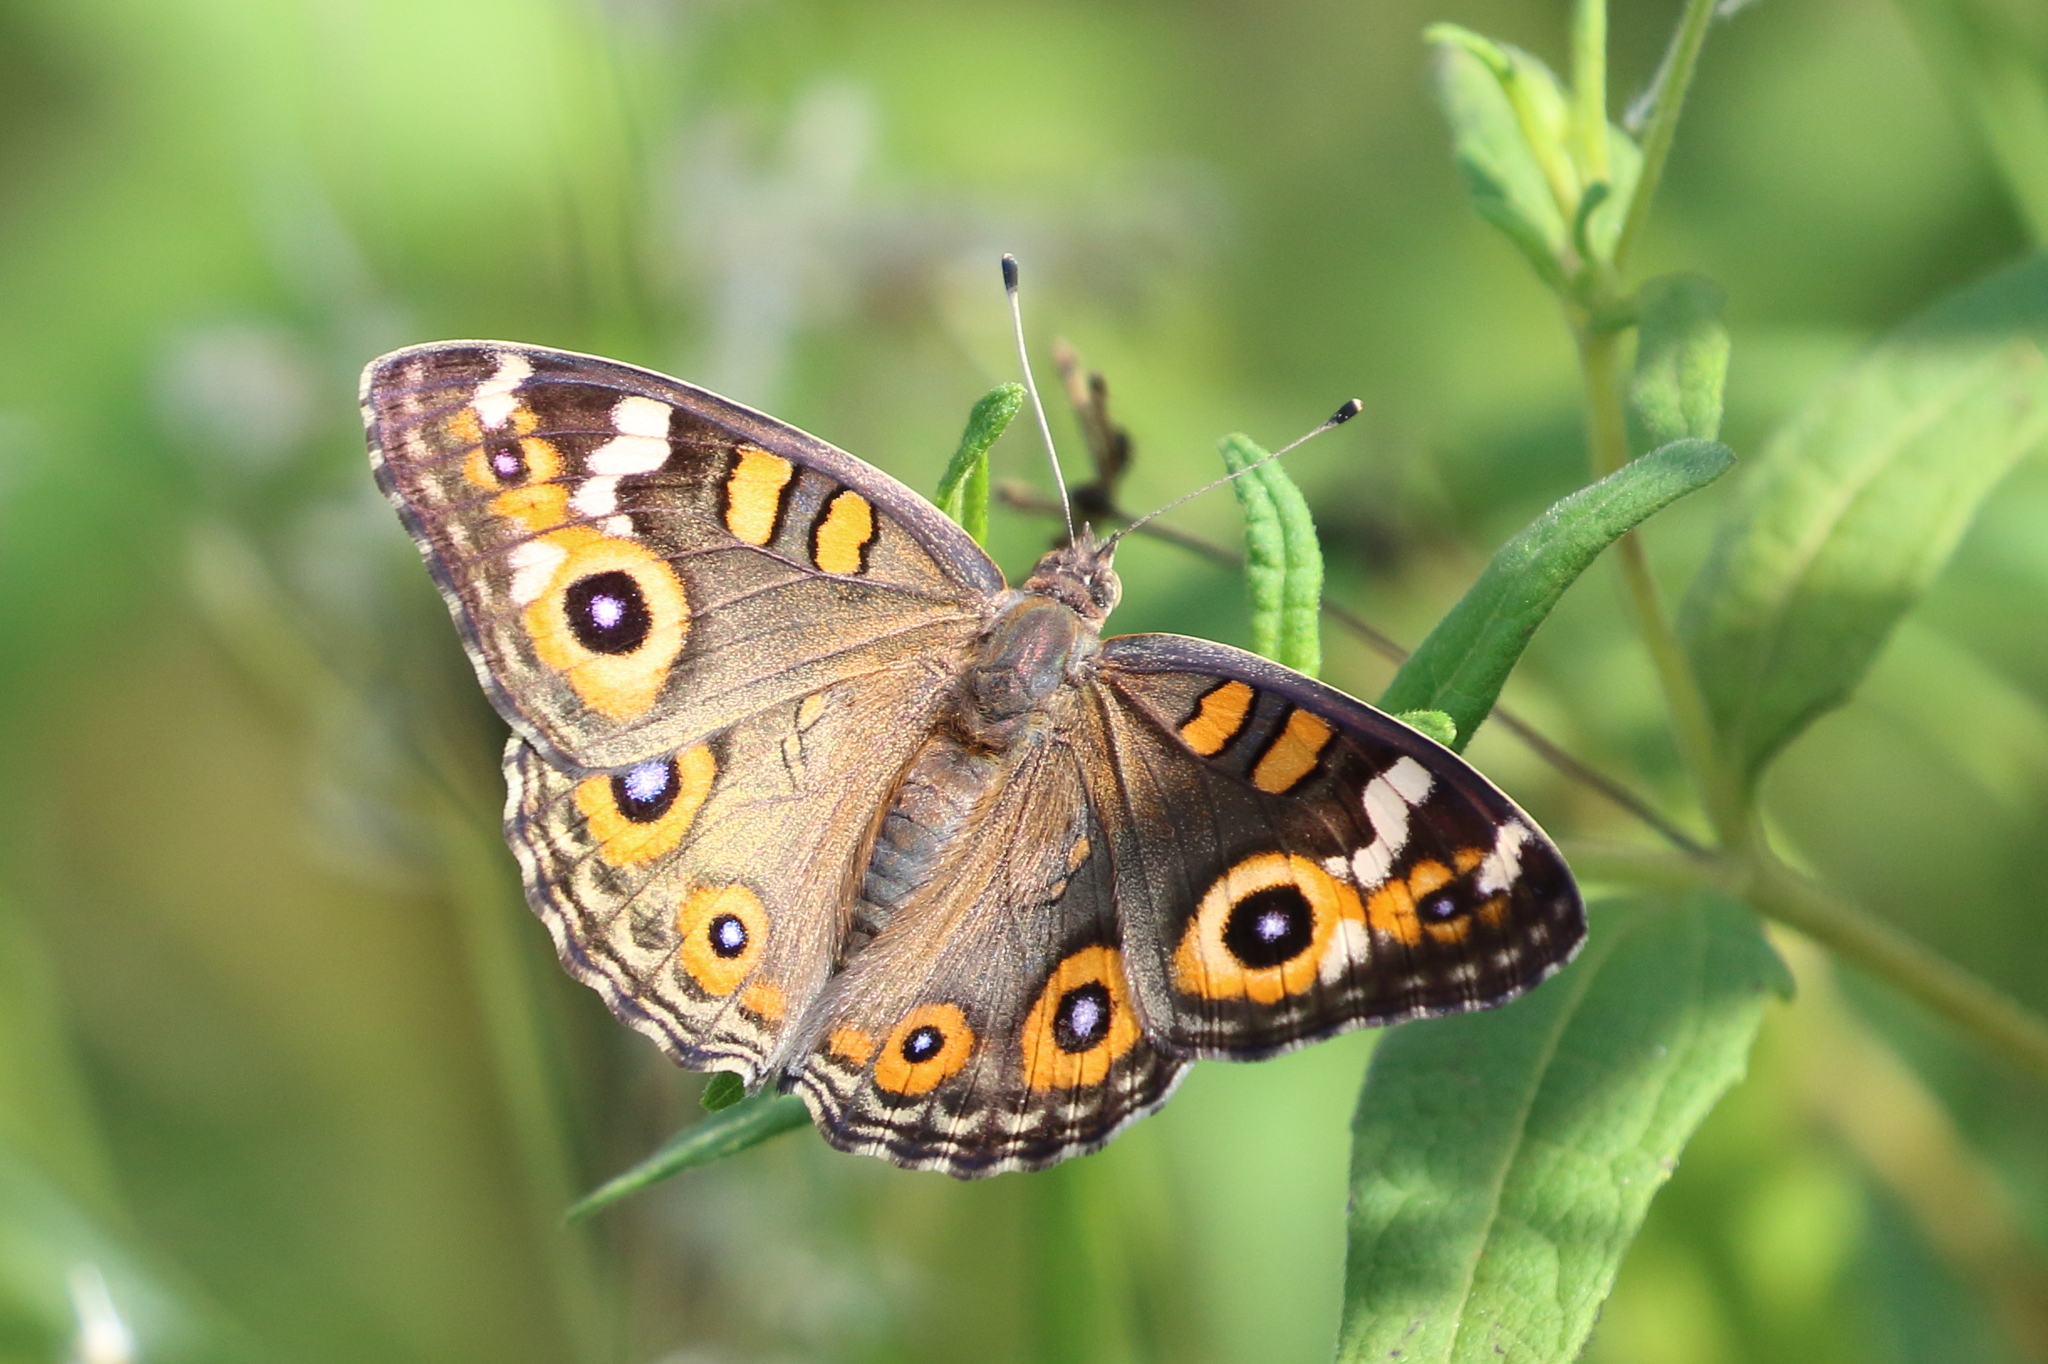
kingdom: Animalia
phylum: Arthropoda
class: Insecta
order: Lepidoptera
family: Nymphalidae
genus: Junonia
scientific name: Junonia villida
